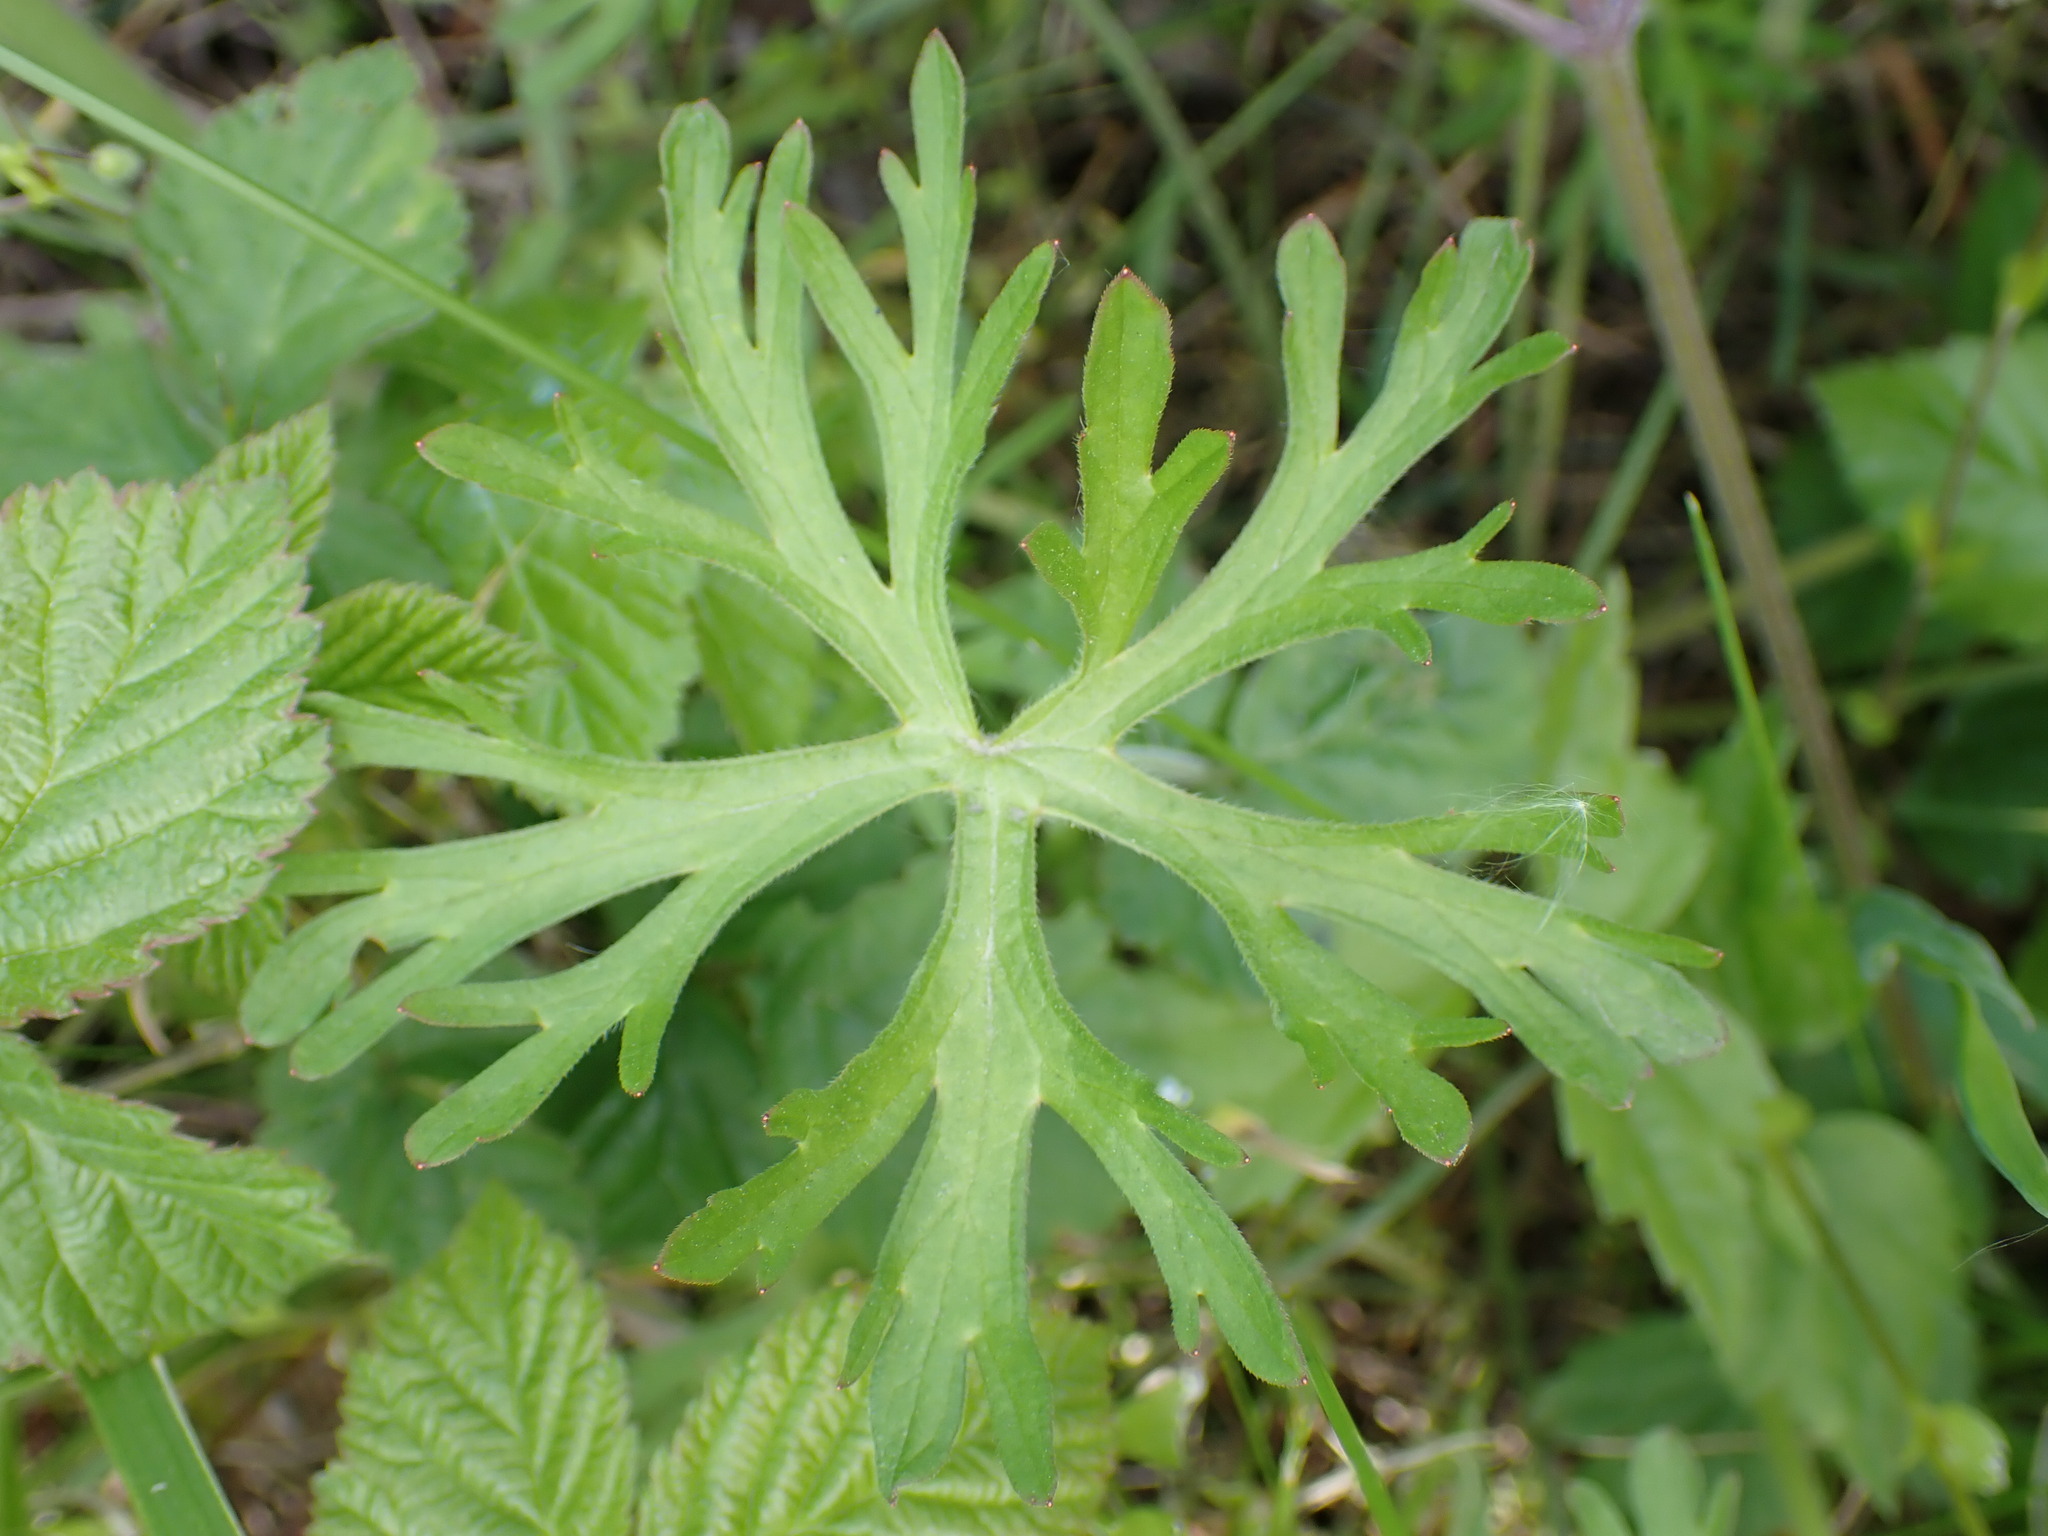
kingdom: Plantae
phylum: Tracheophyta
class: Magnoliopsida
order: Geraniales
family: Geraniaceae
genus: Geranium
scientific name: Geranium dissectum
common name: Cut-leaved crane's-bill
